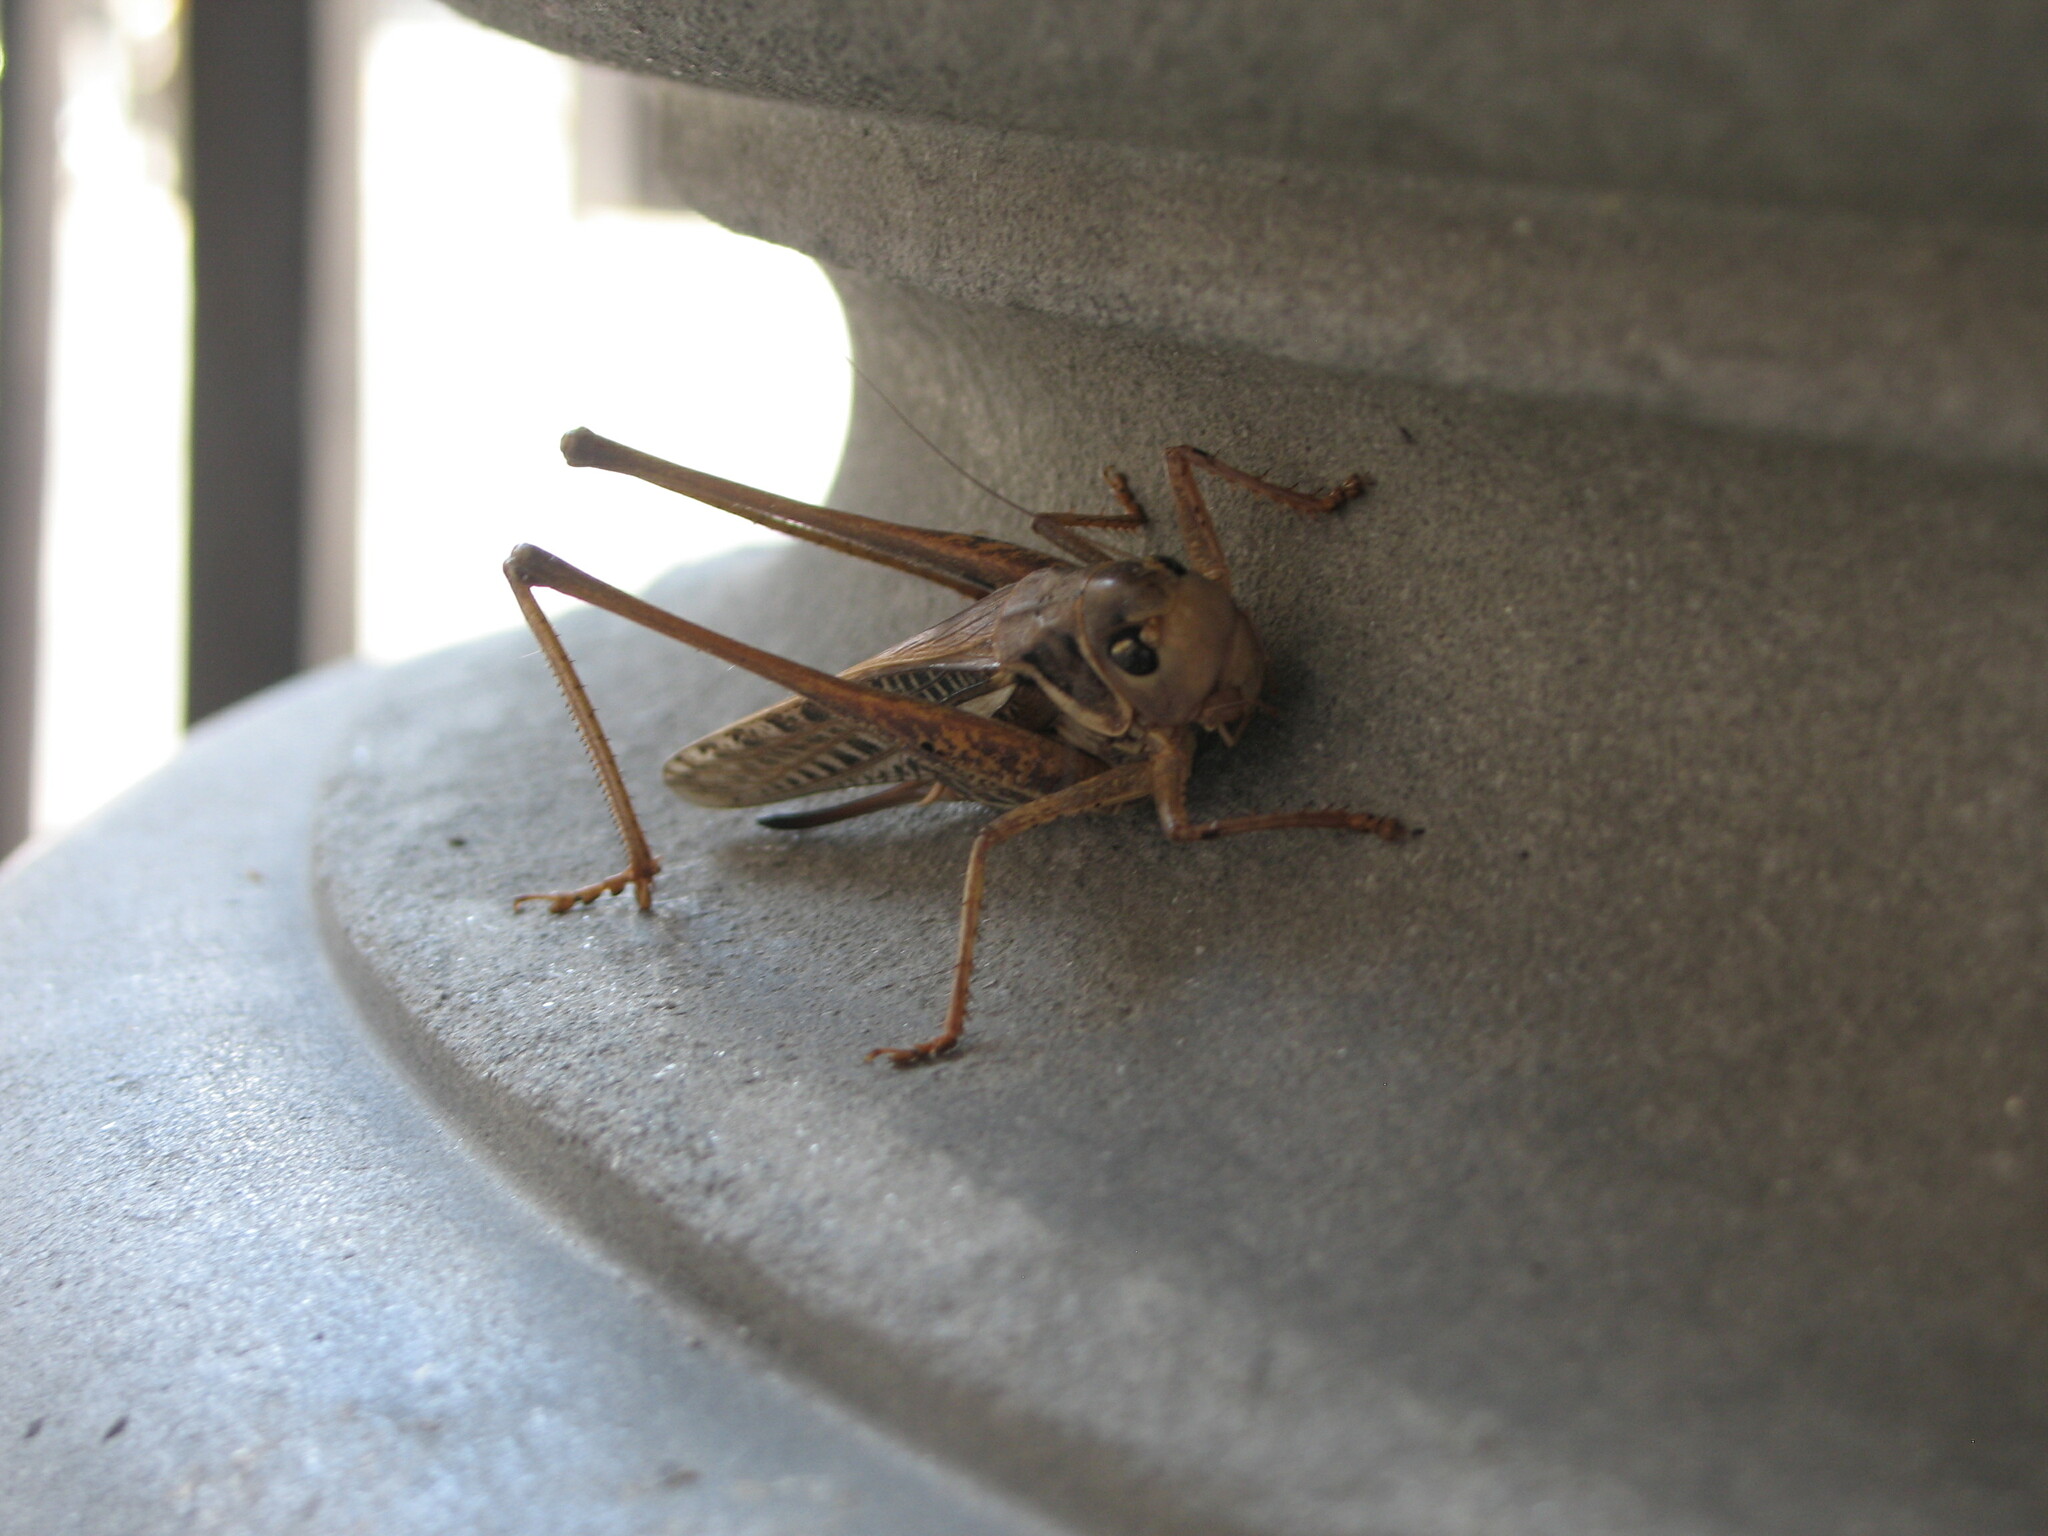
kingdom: Animalia
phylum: Arthropoda
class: Insecta
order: Orthoptera
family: Tettigoniidae
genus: Decticus
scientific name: Decticus albifrons
